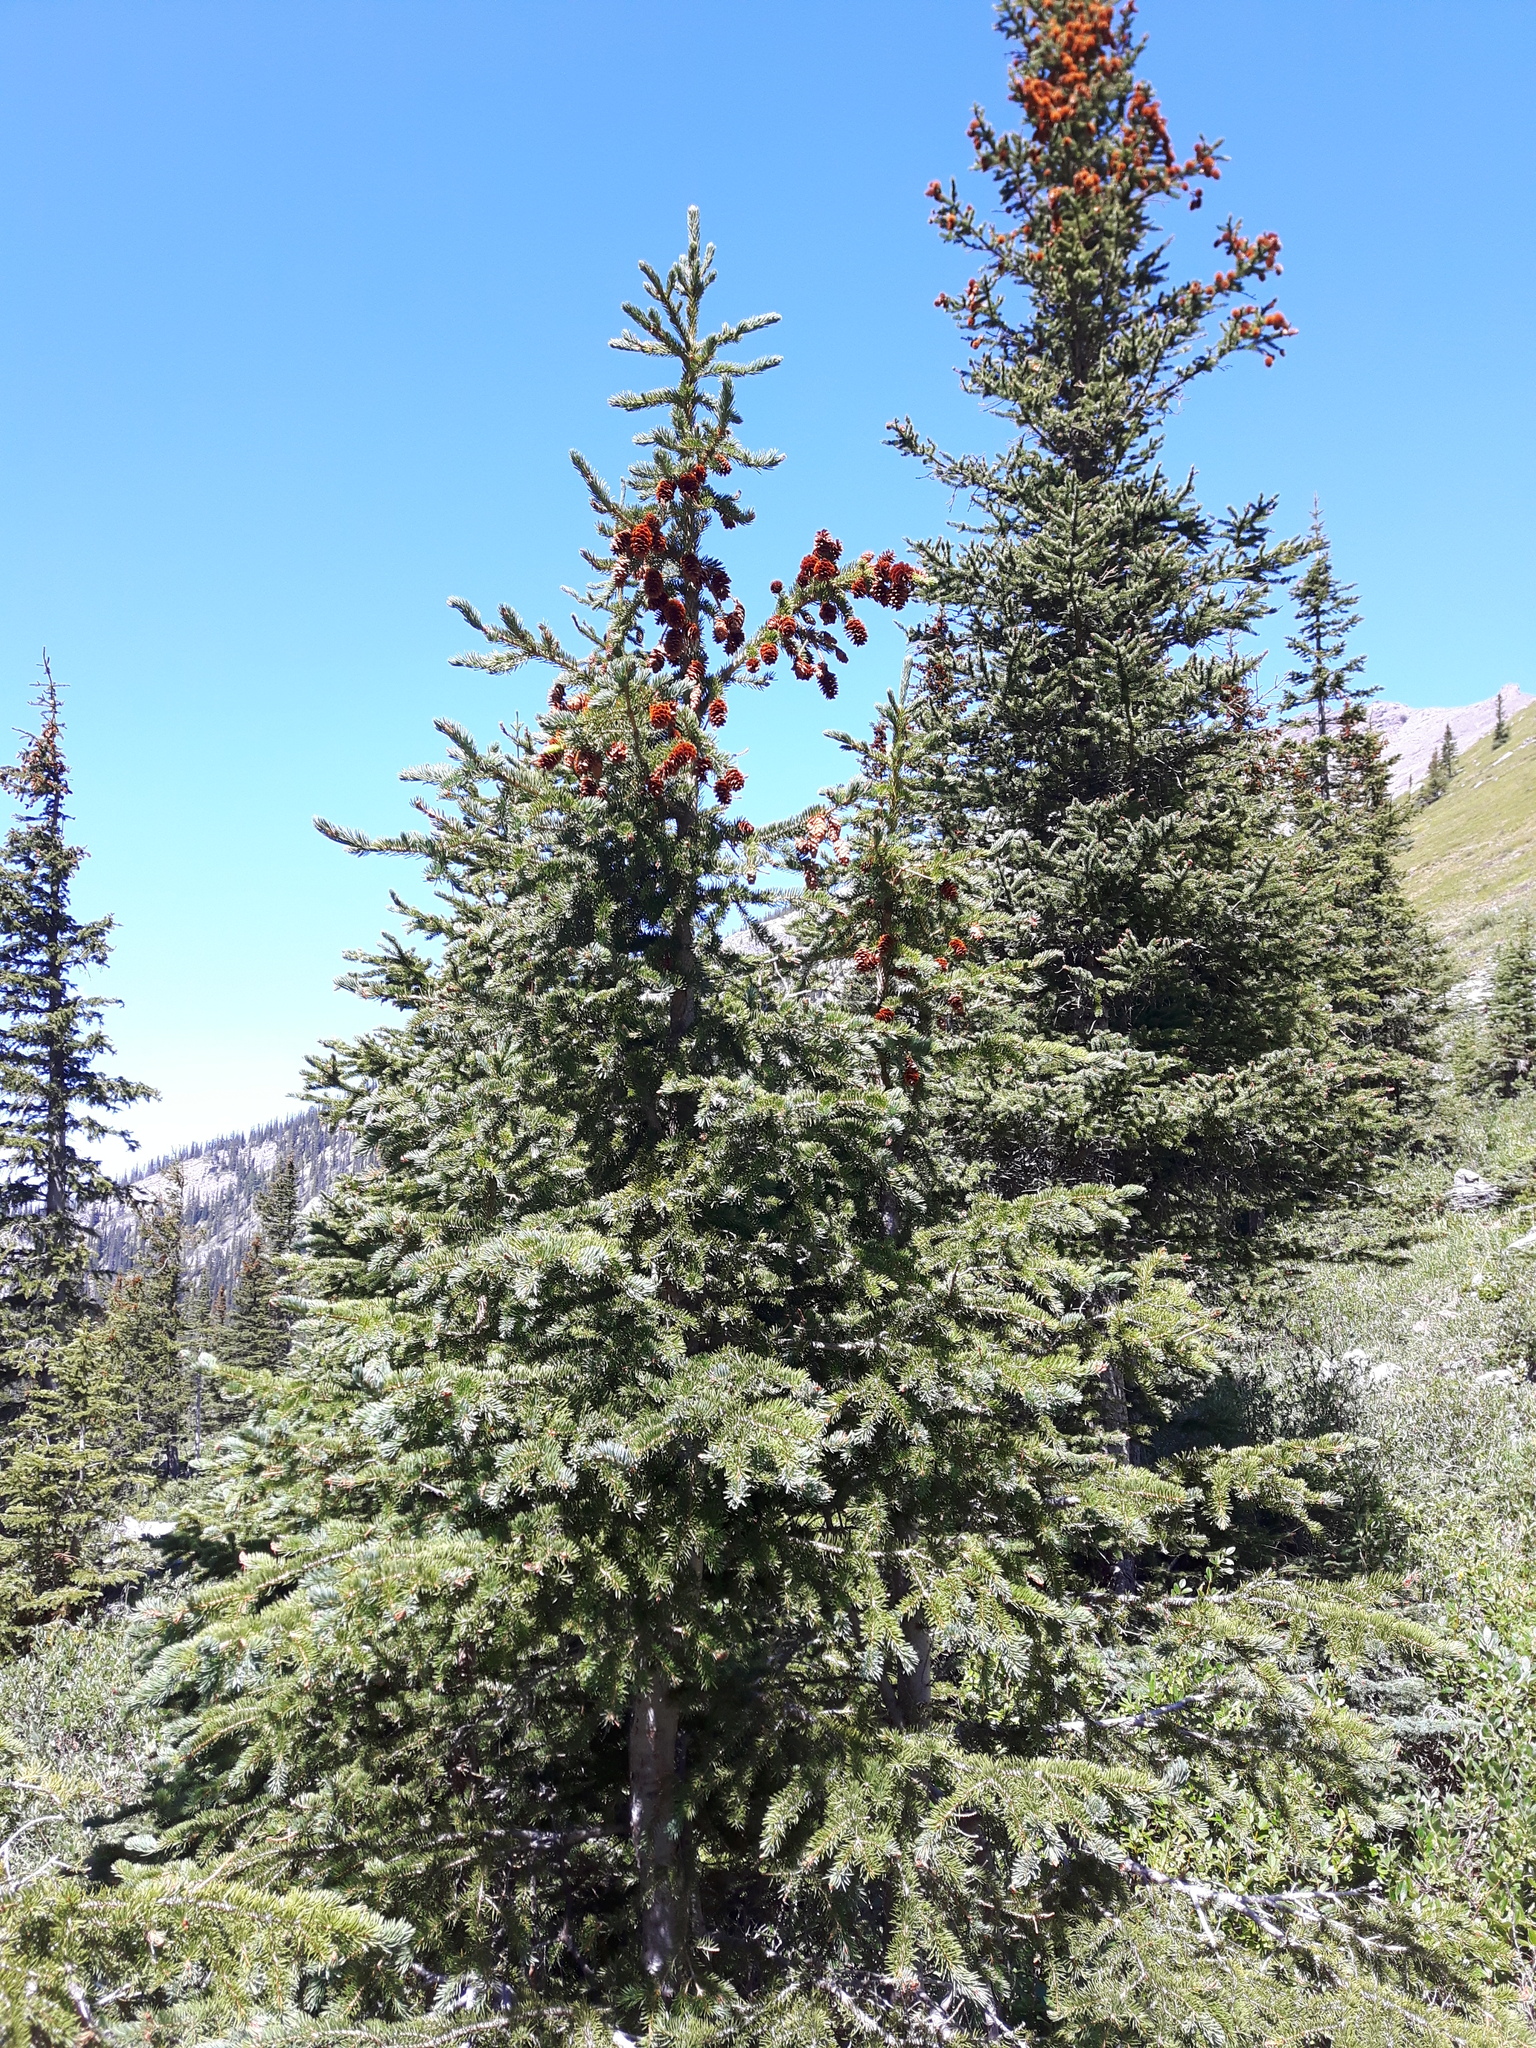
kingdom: Plantae
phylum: Tracheophyta
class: Pinopsida
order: Pinales
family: Pinaceae
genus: Picea
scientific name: Picea engelmannii
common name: Engelmann spruce
